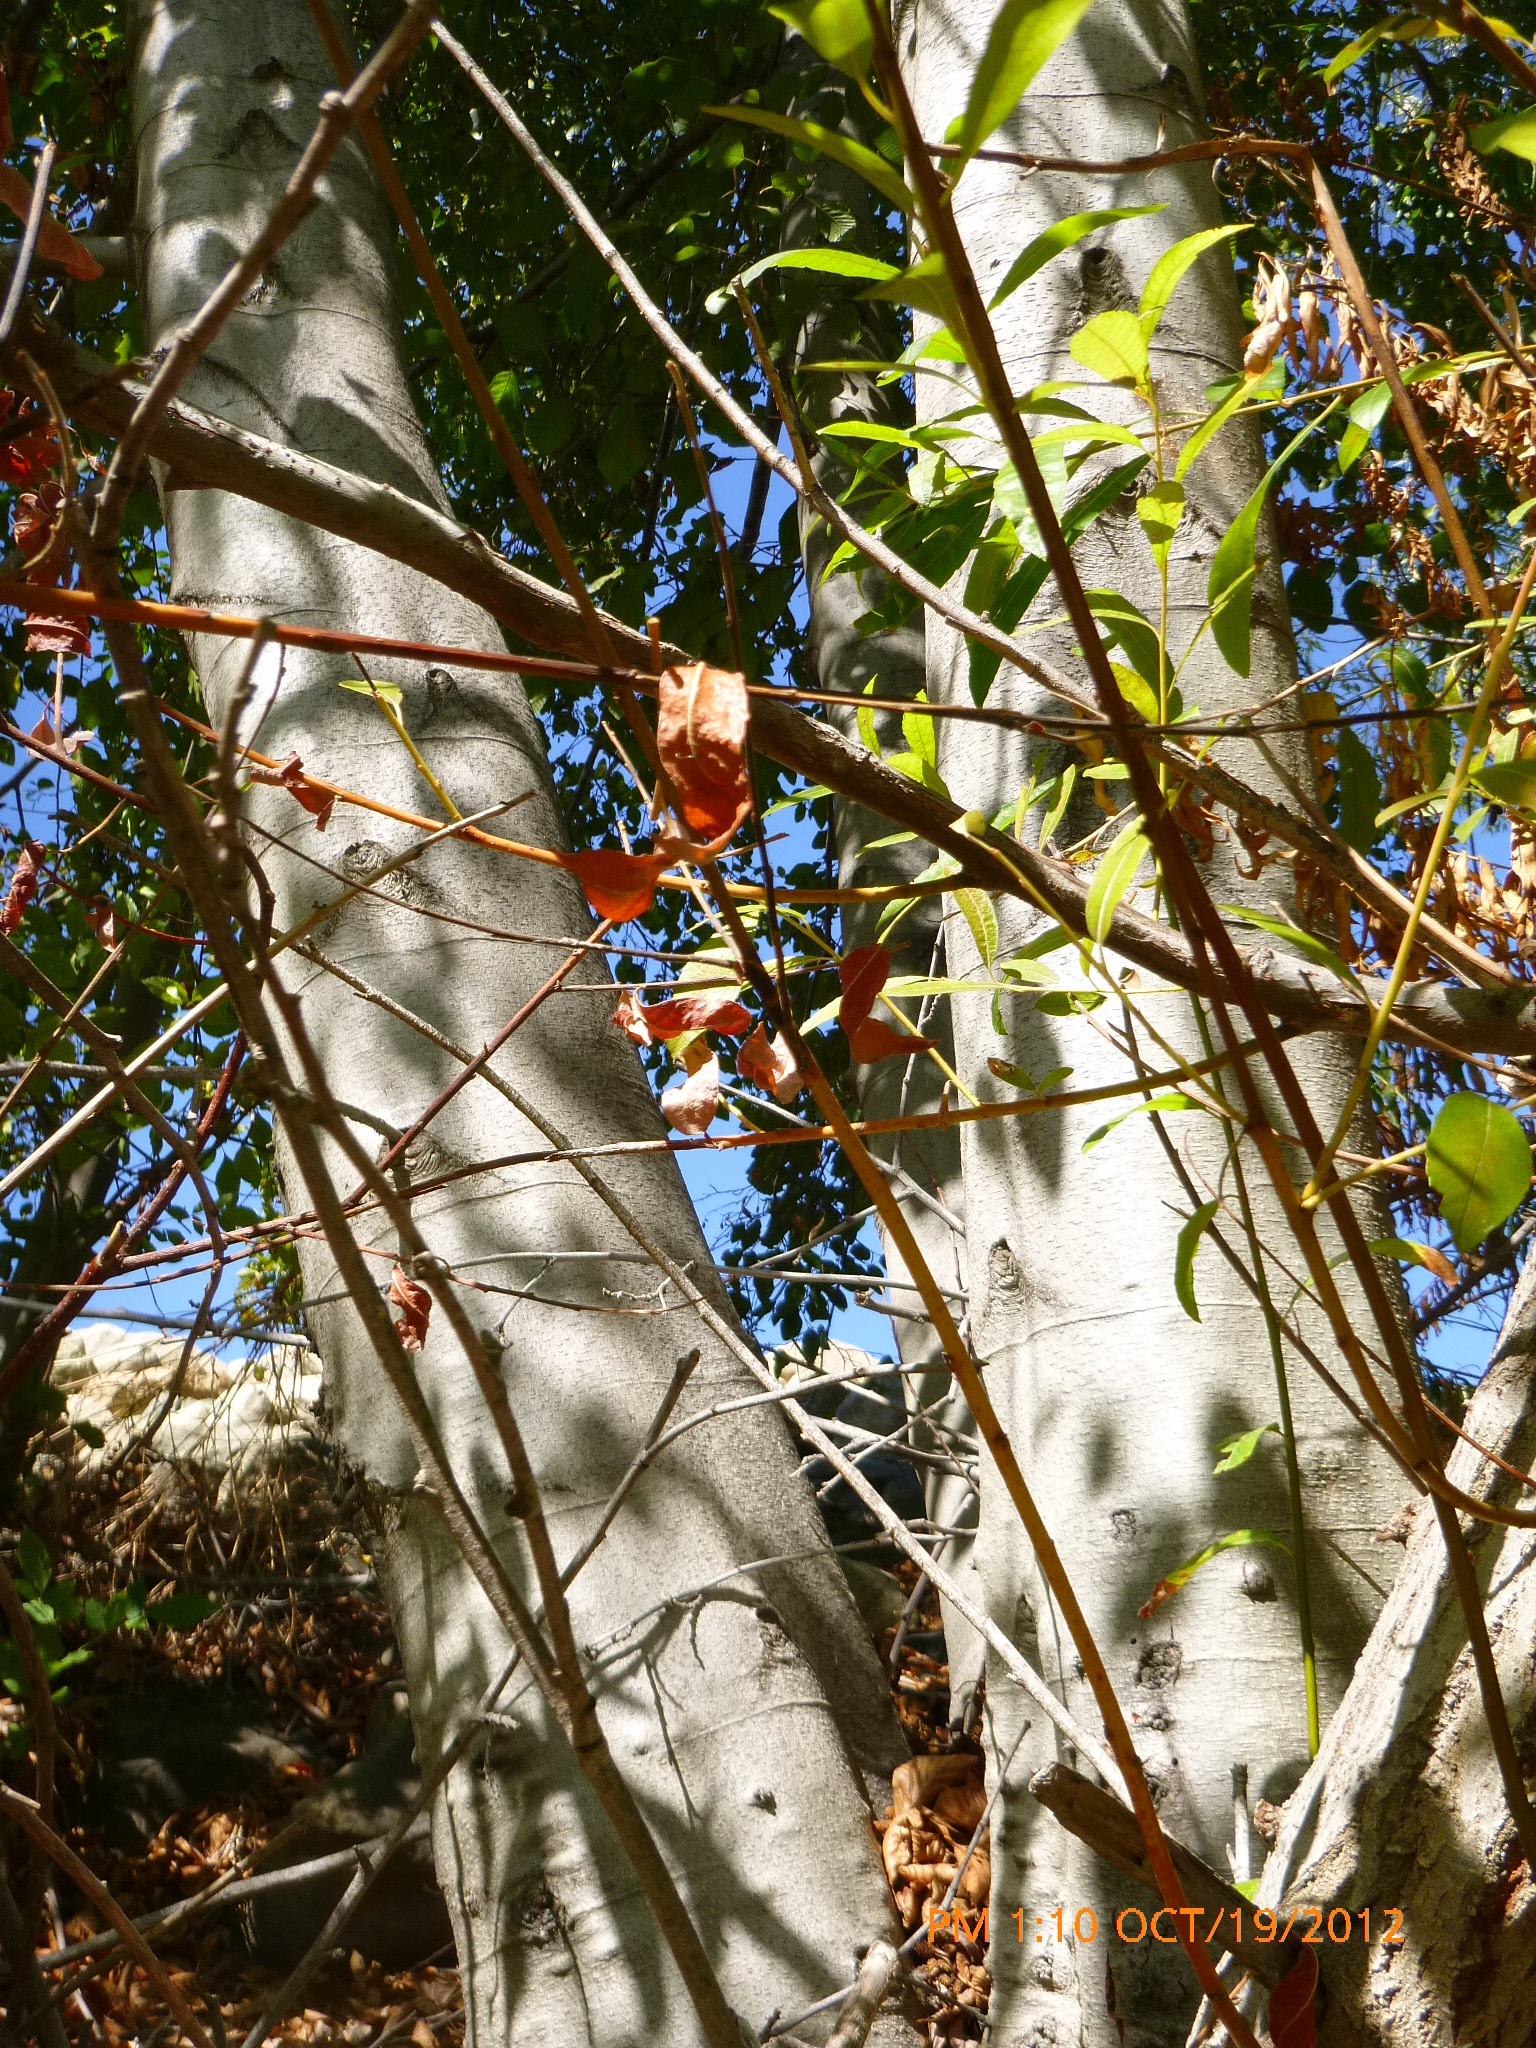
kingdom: Plantae
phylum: Tracheophyta
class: Magnoliopsida
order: Fagales
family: Betulaceae
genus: Alnus
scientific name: Alnus rhombifolia
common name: California alder
